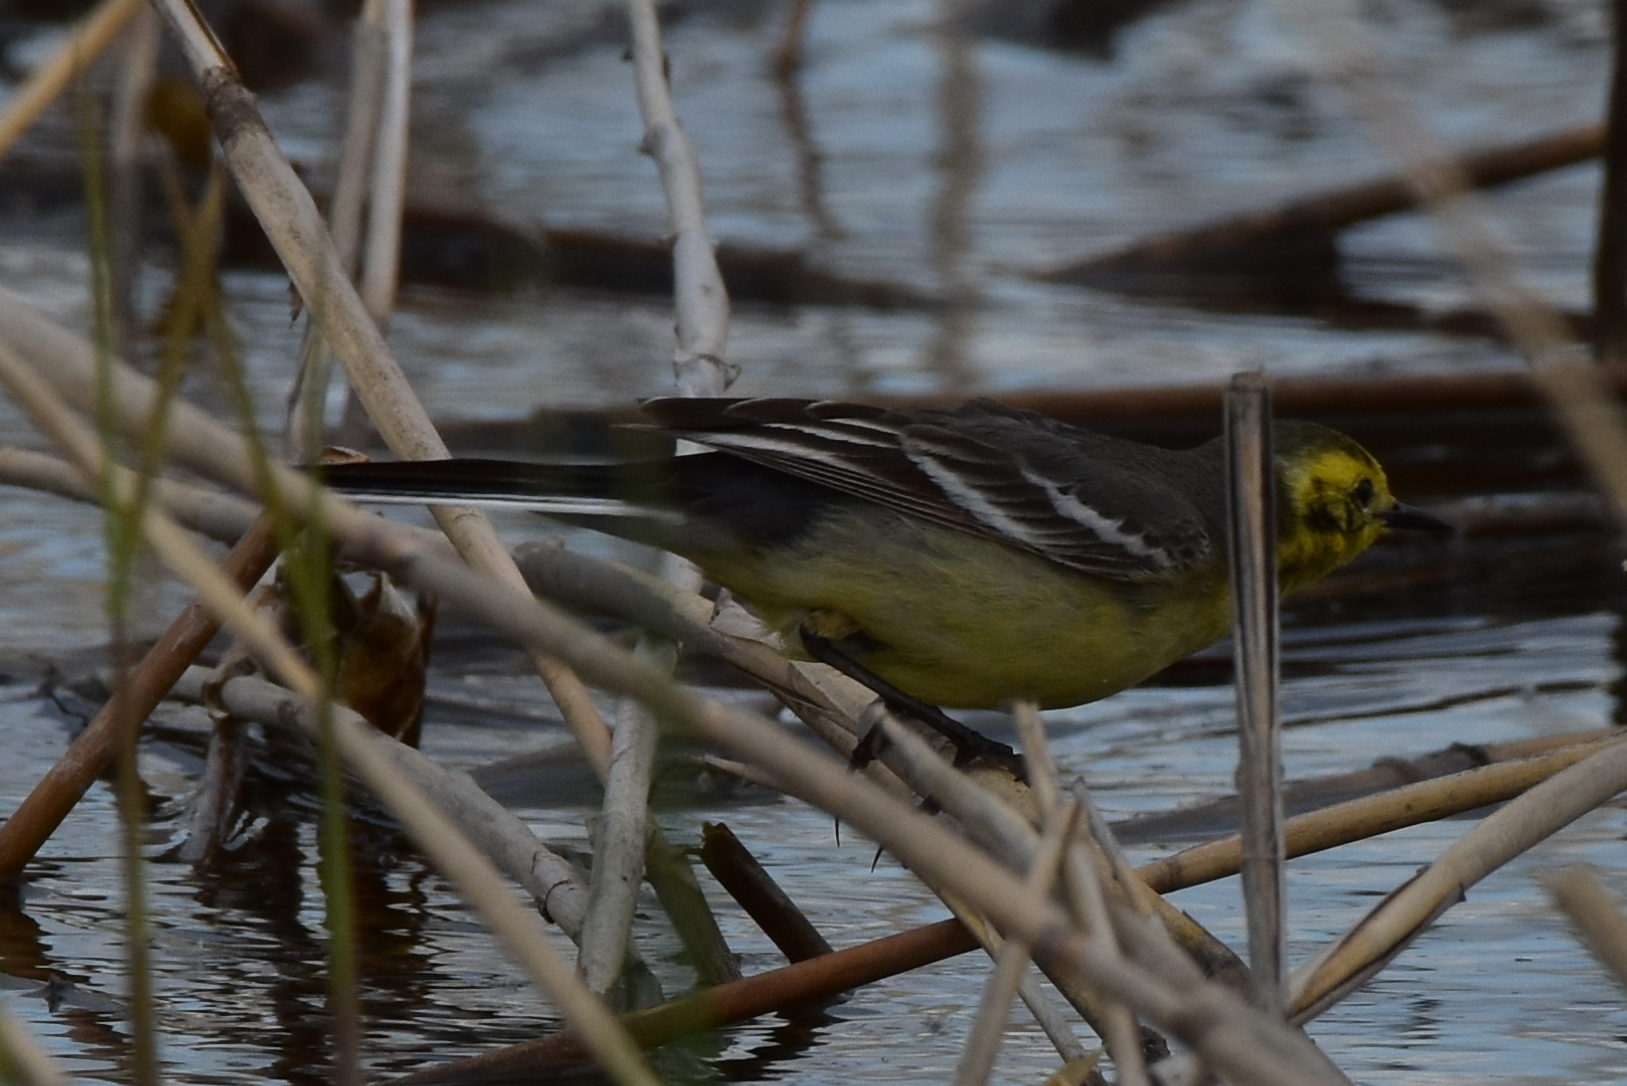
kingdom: Animalia
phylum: Chordata
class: Aves
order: Passeriformes
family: Motacillidae
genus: Motacilla
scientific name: Motacilla citreola
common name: Citrine wagtail
